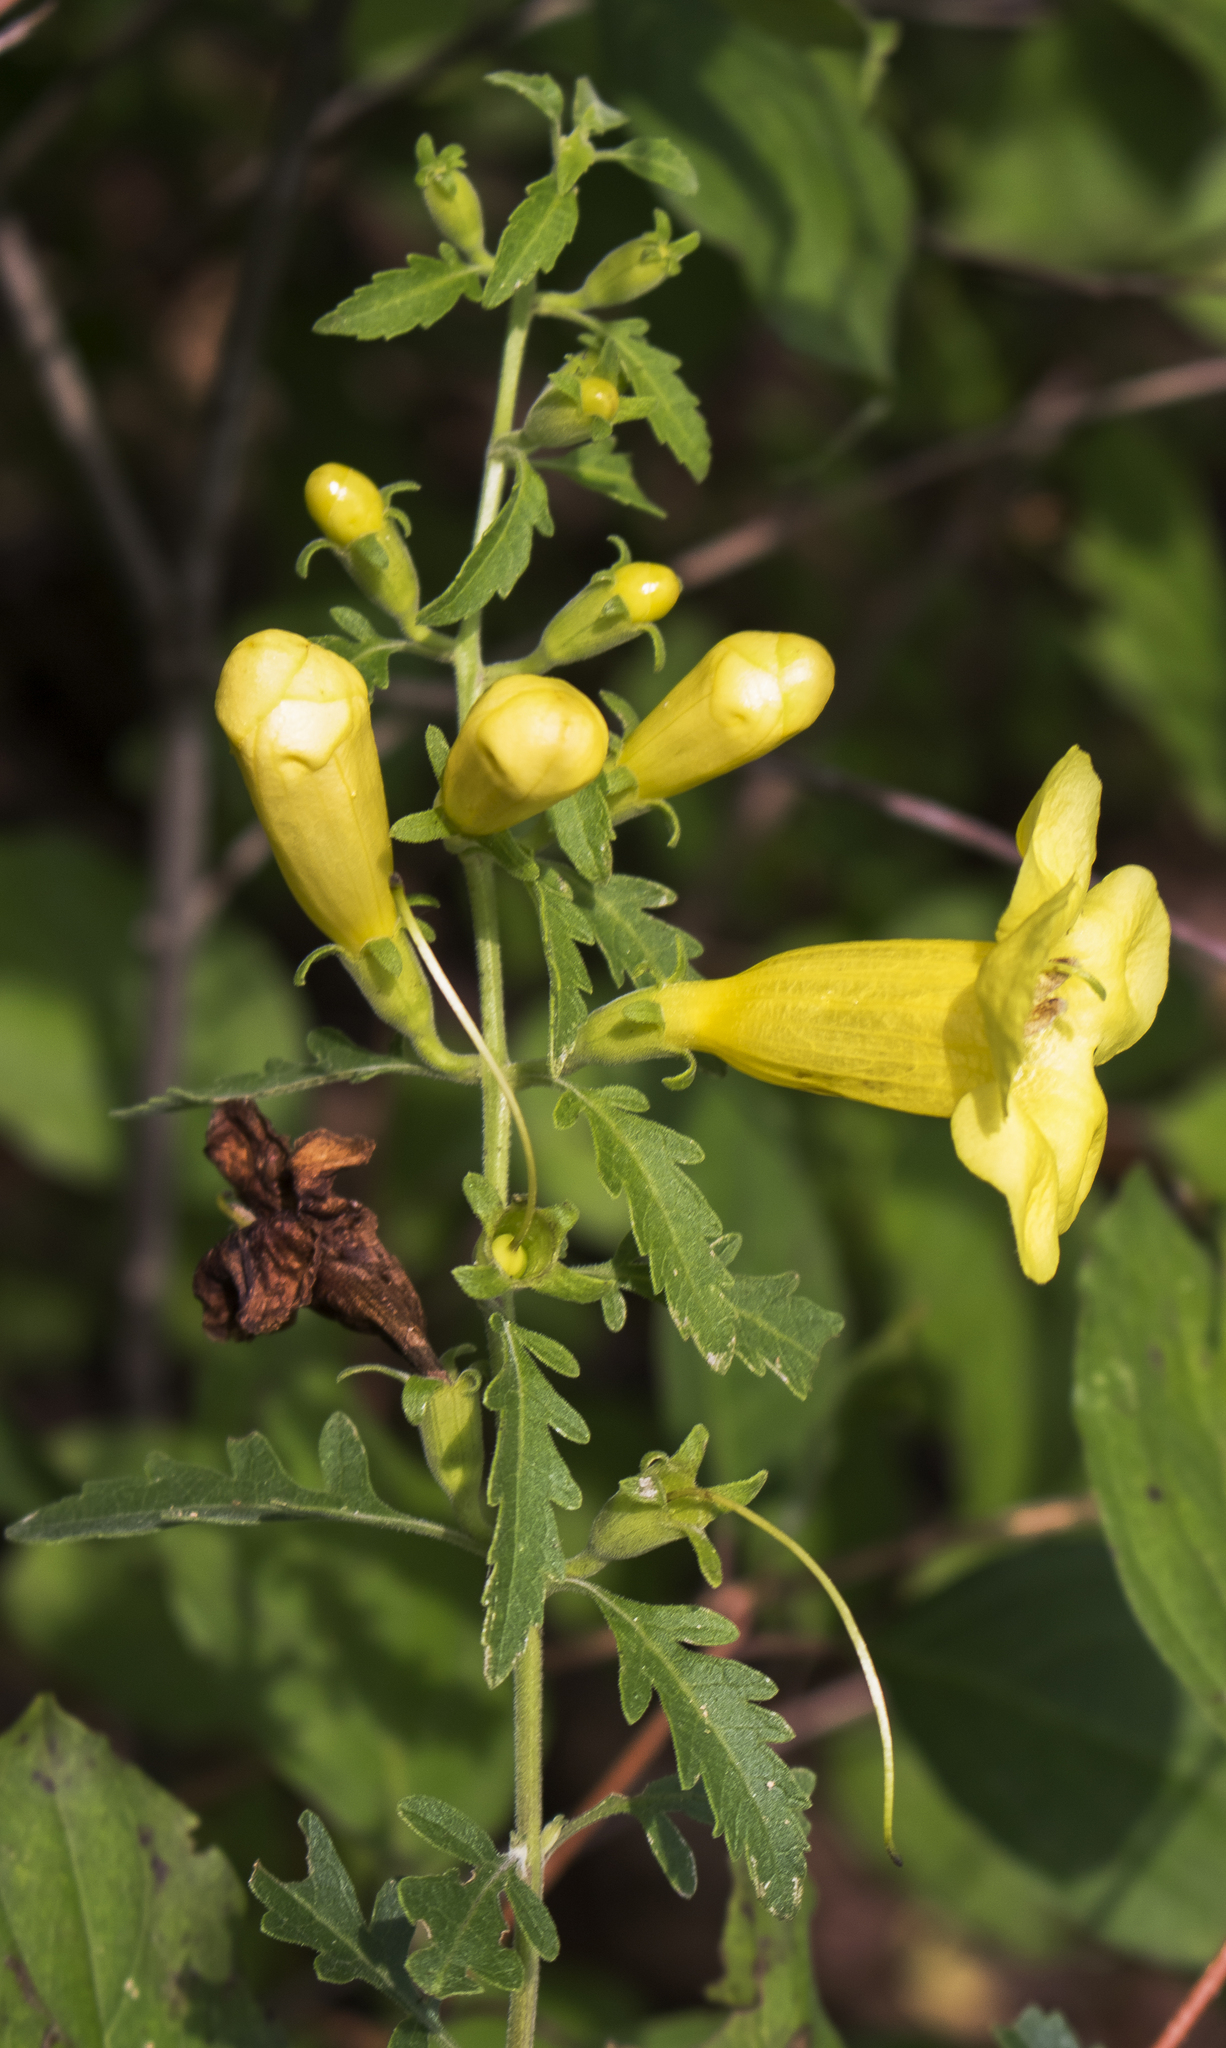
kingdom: Plantae
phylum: Tracheophyta
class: Magnoliopsida
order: Lamiales
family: Orobanchaceae
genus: Aureolaria
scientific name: Aureolaria grandiflora
